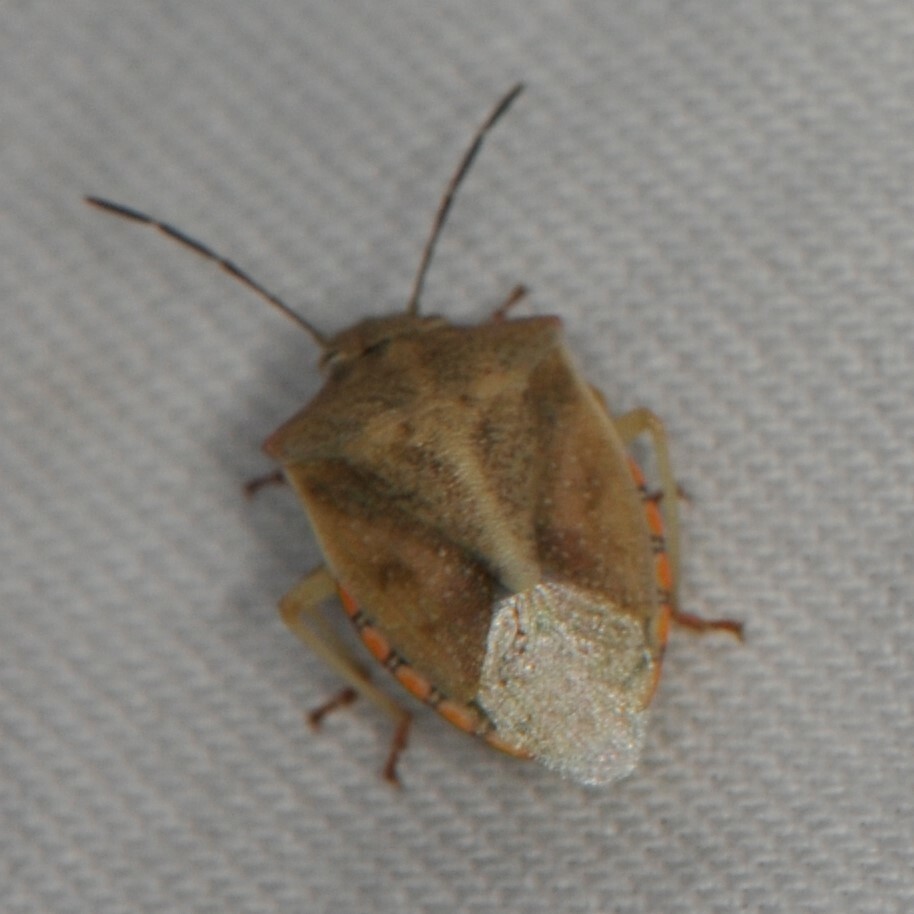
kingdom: Animalia
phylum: Arthropoda
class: Insecta
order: Hemiptera
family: Pentatomidae
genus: Thyanta
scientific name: Thyanta accerra
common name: Stink bug
